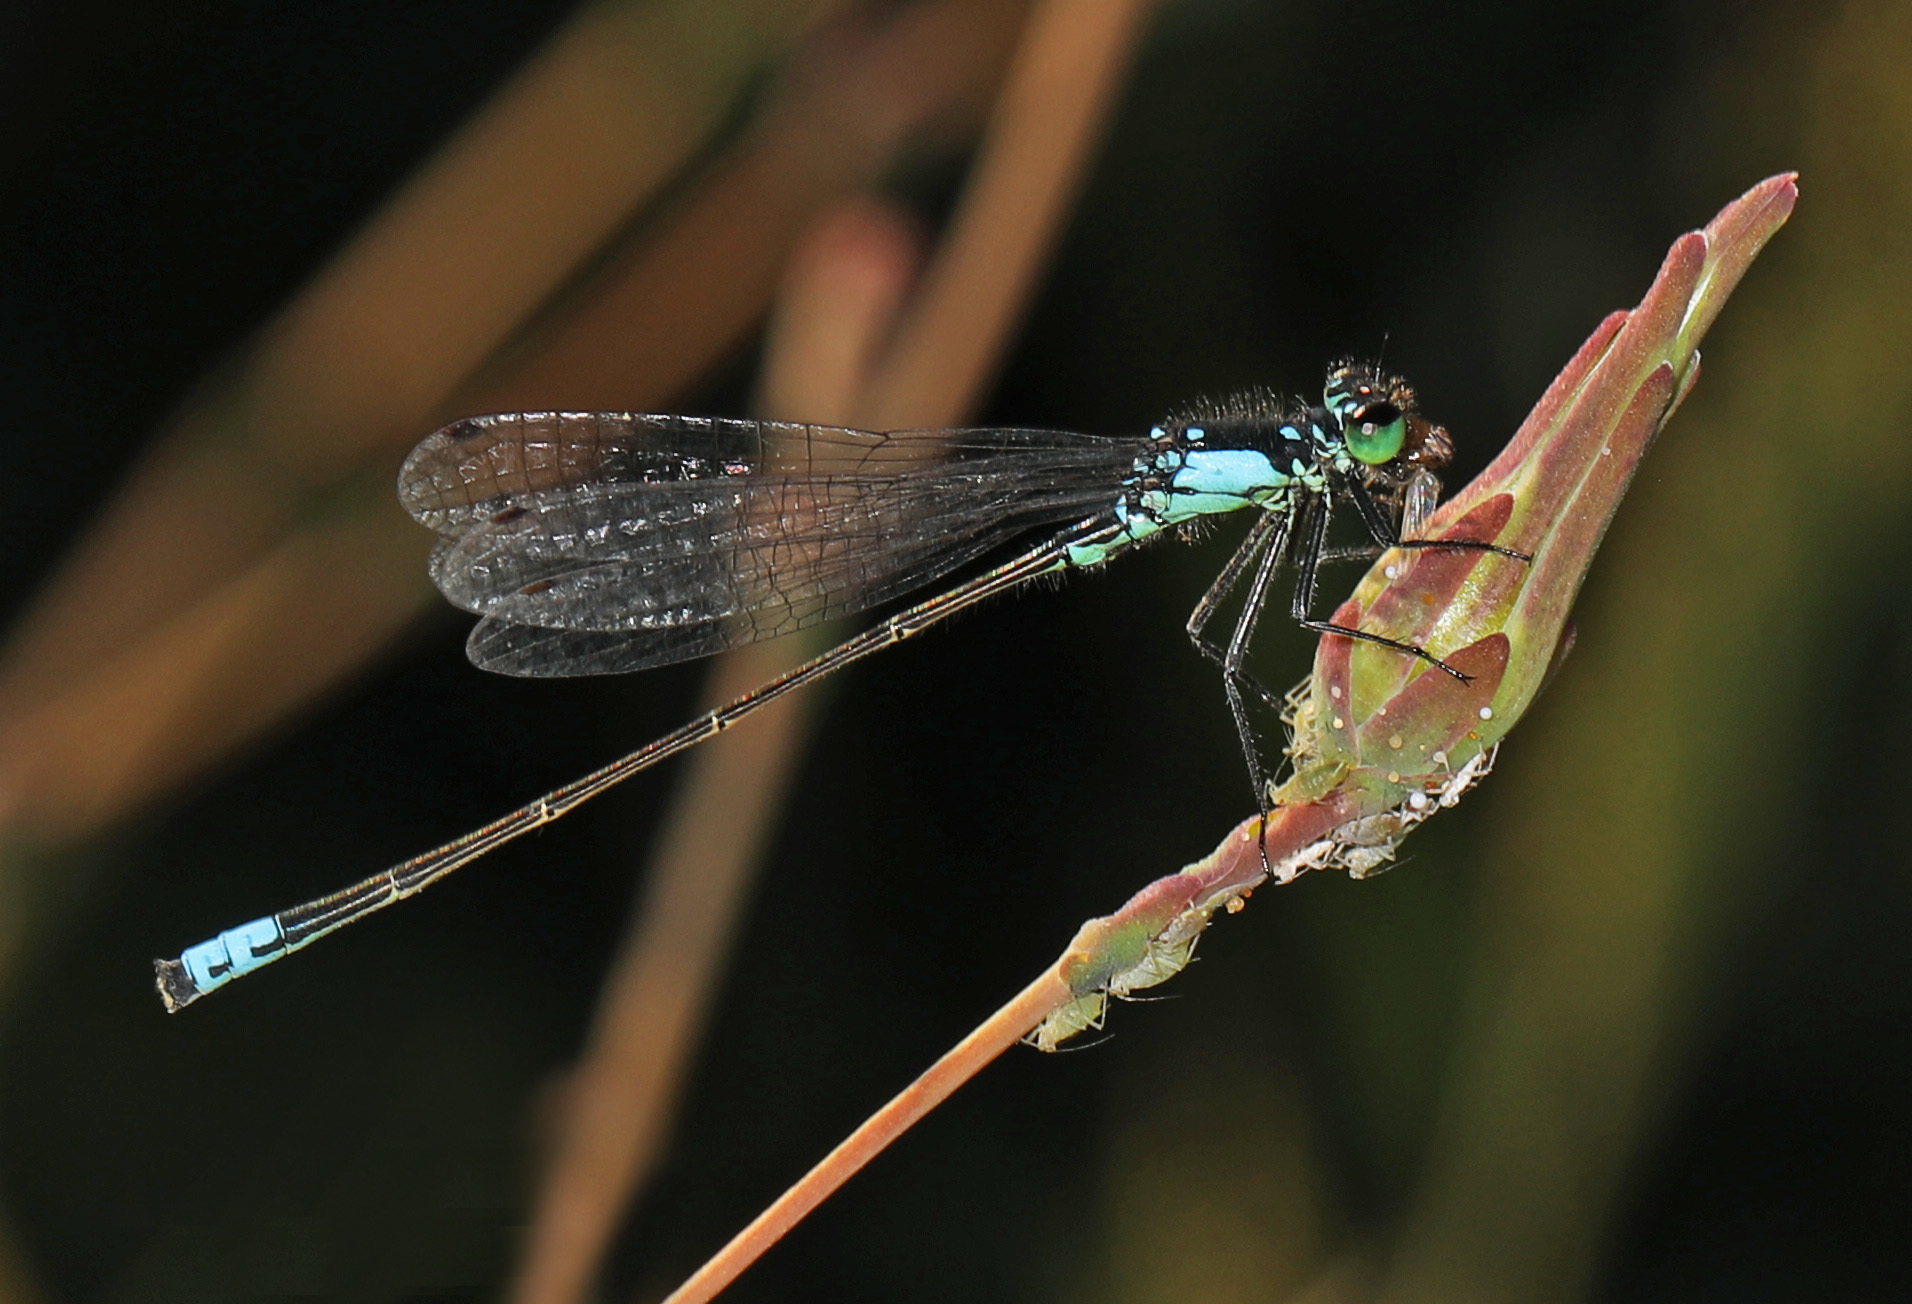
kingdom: Animalia
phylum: Arthropoda
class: Insecta
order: Odonata
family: Coenagrionidae
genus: Ischnura
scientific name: Ischnura cervula
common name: Pacific forktail
